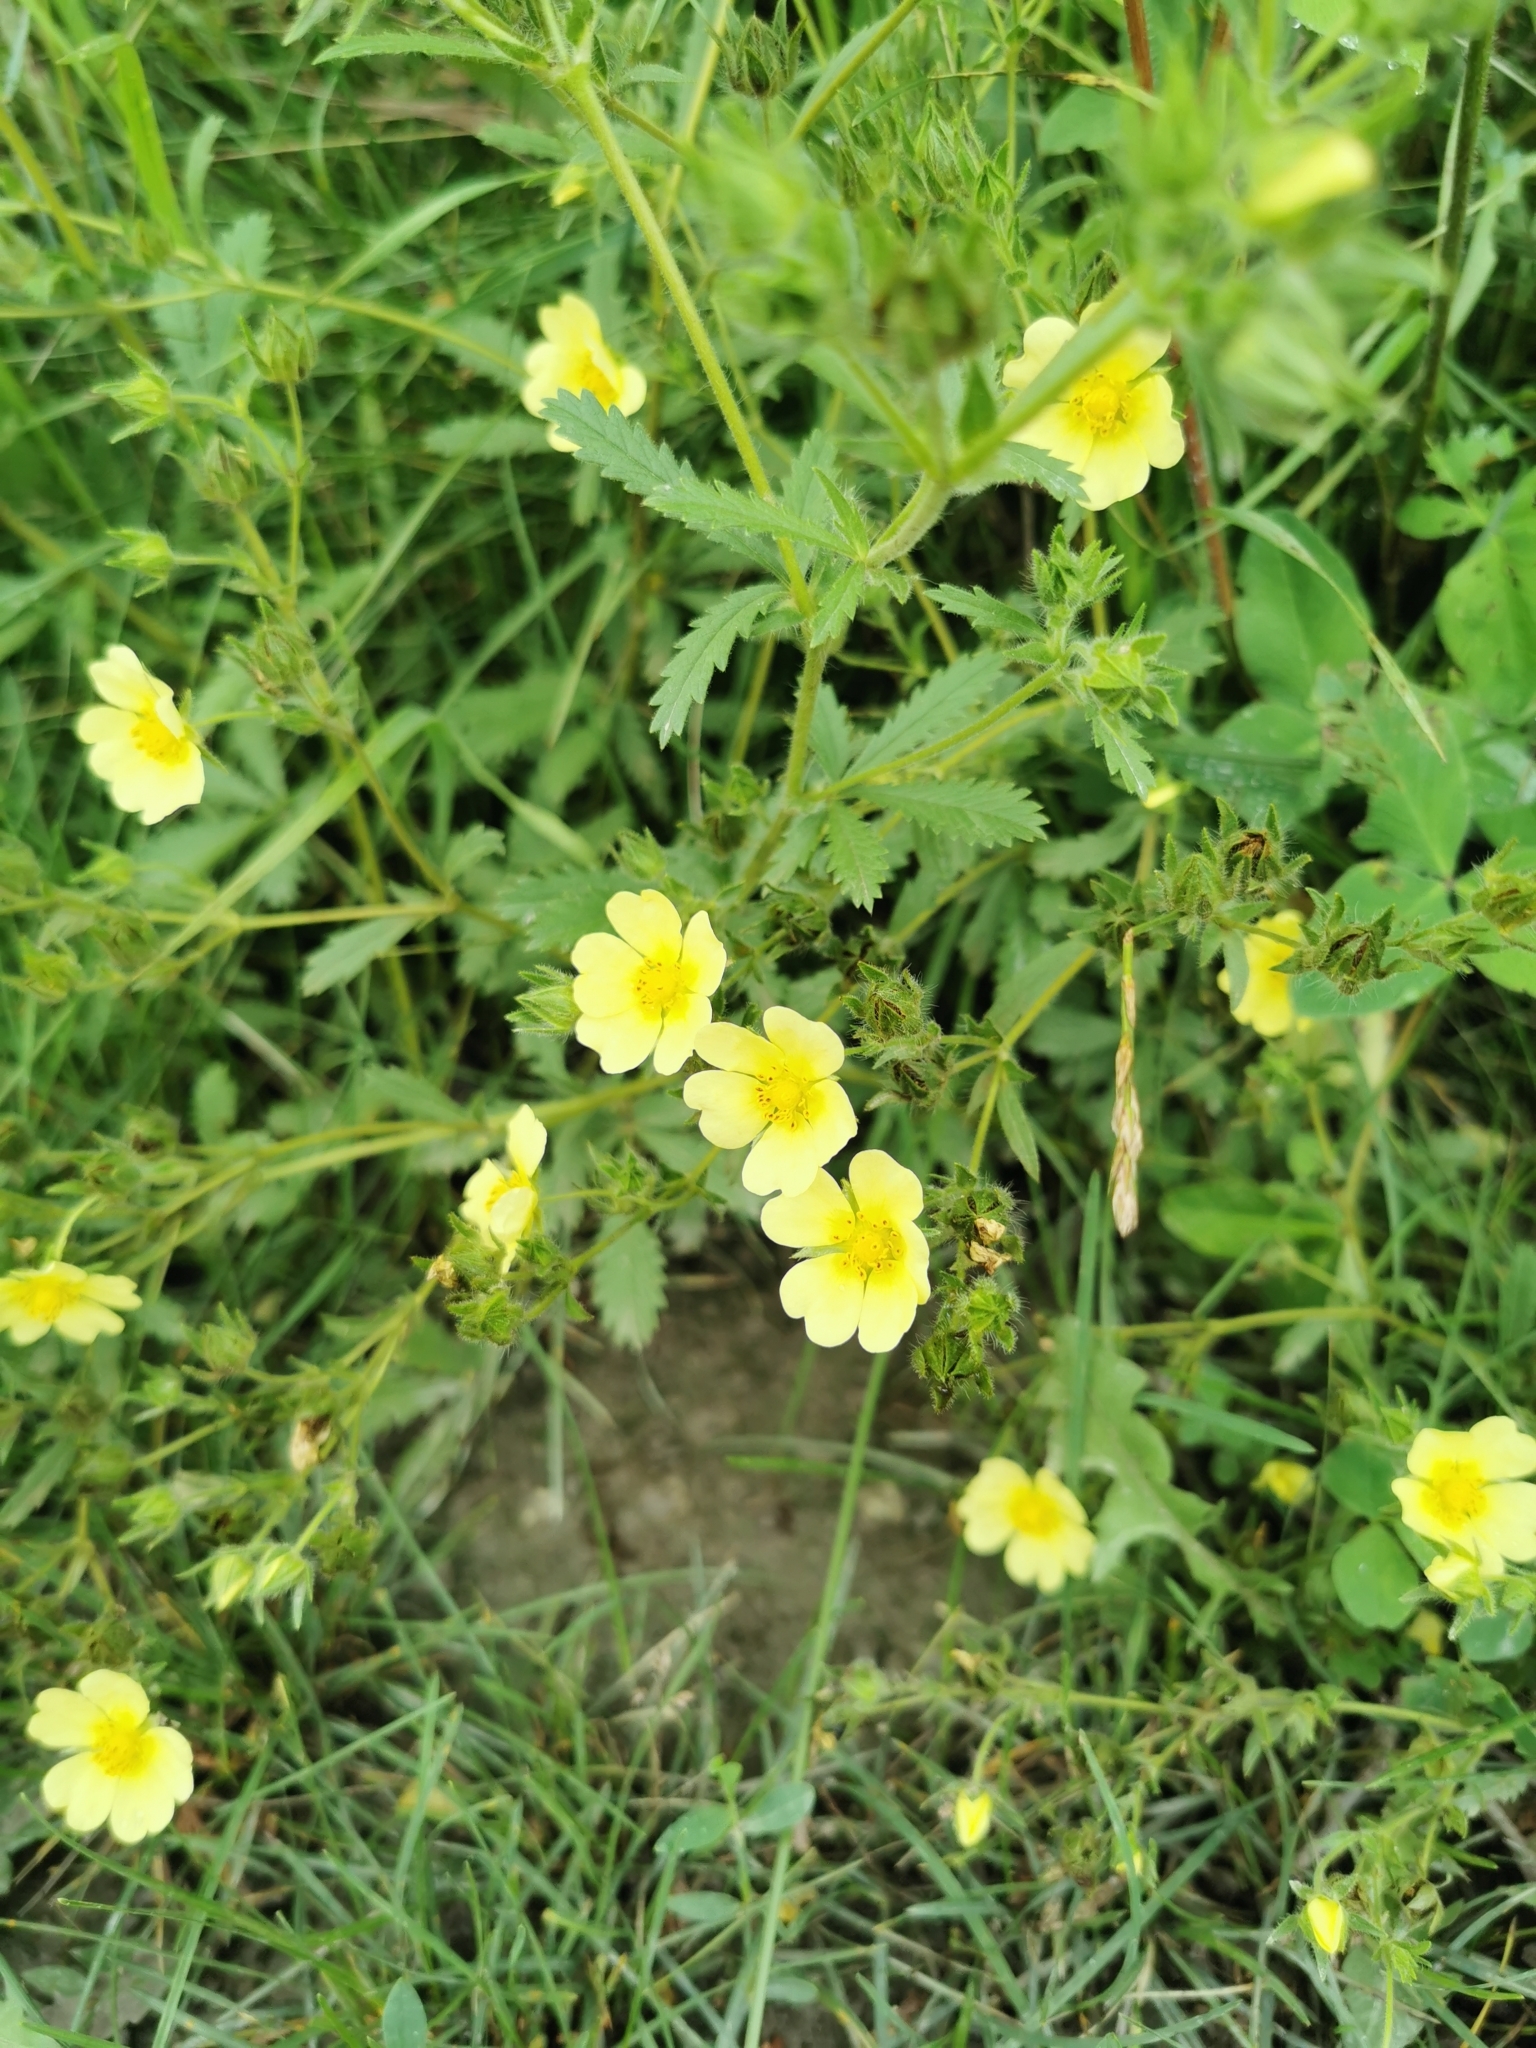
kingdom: Plantae
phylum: Tracheophyta
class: Magnoliopsida
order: Rosales
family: Rosaceae
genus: Potentilla
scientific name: Potentilla recta
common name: Sulphur cinquefoil
